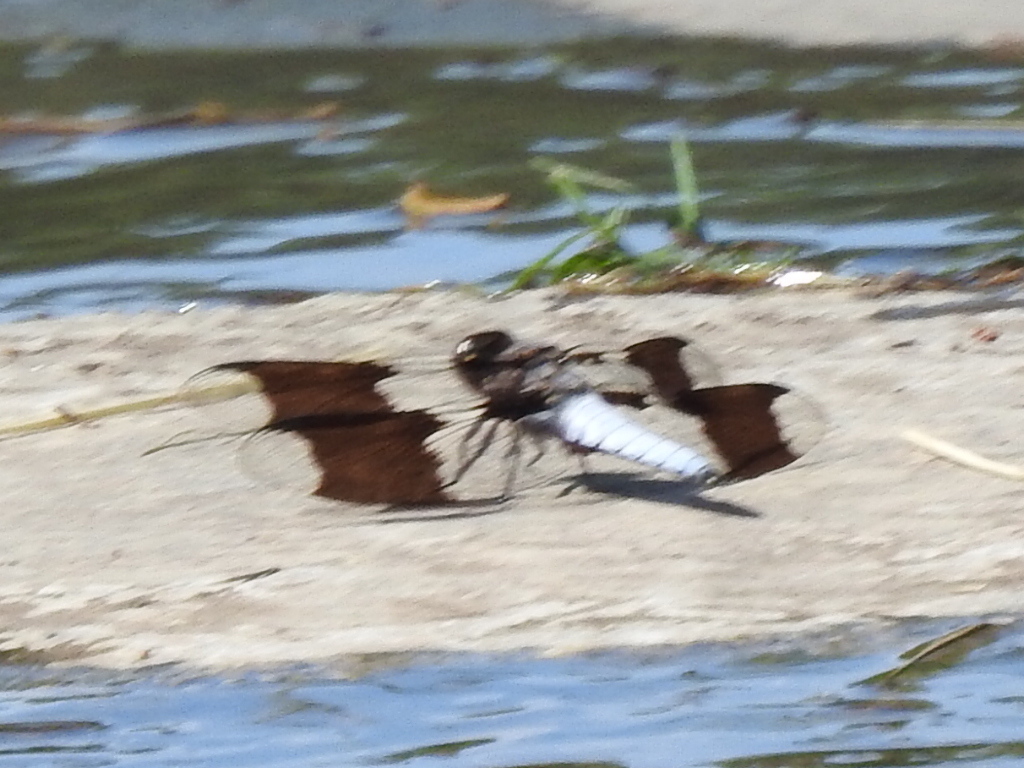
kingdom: Animalia
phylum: Arthropoda
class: Insecta
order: Odonata
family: Libellulidae
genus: Plathemis
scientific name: Plathemis lydia
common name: Common whitetail
